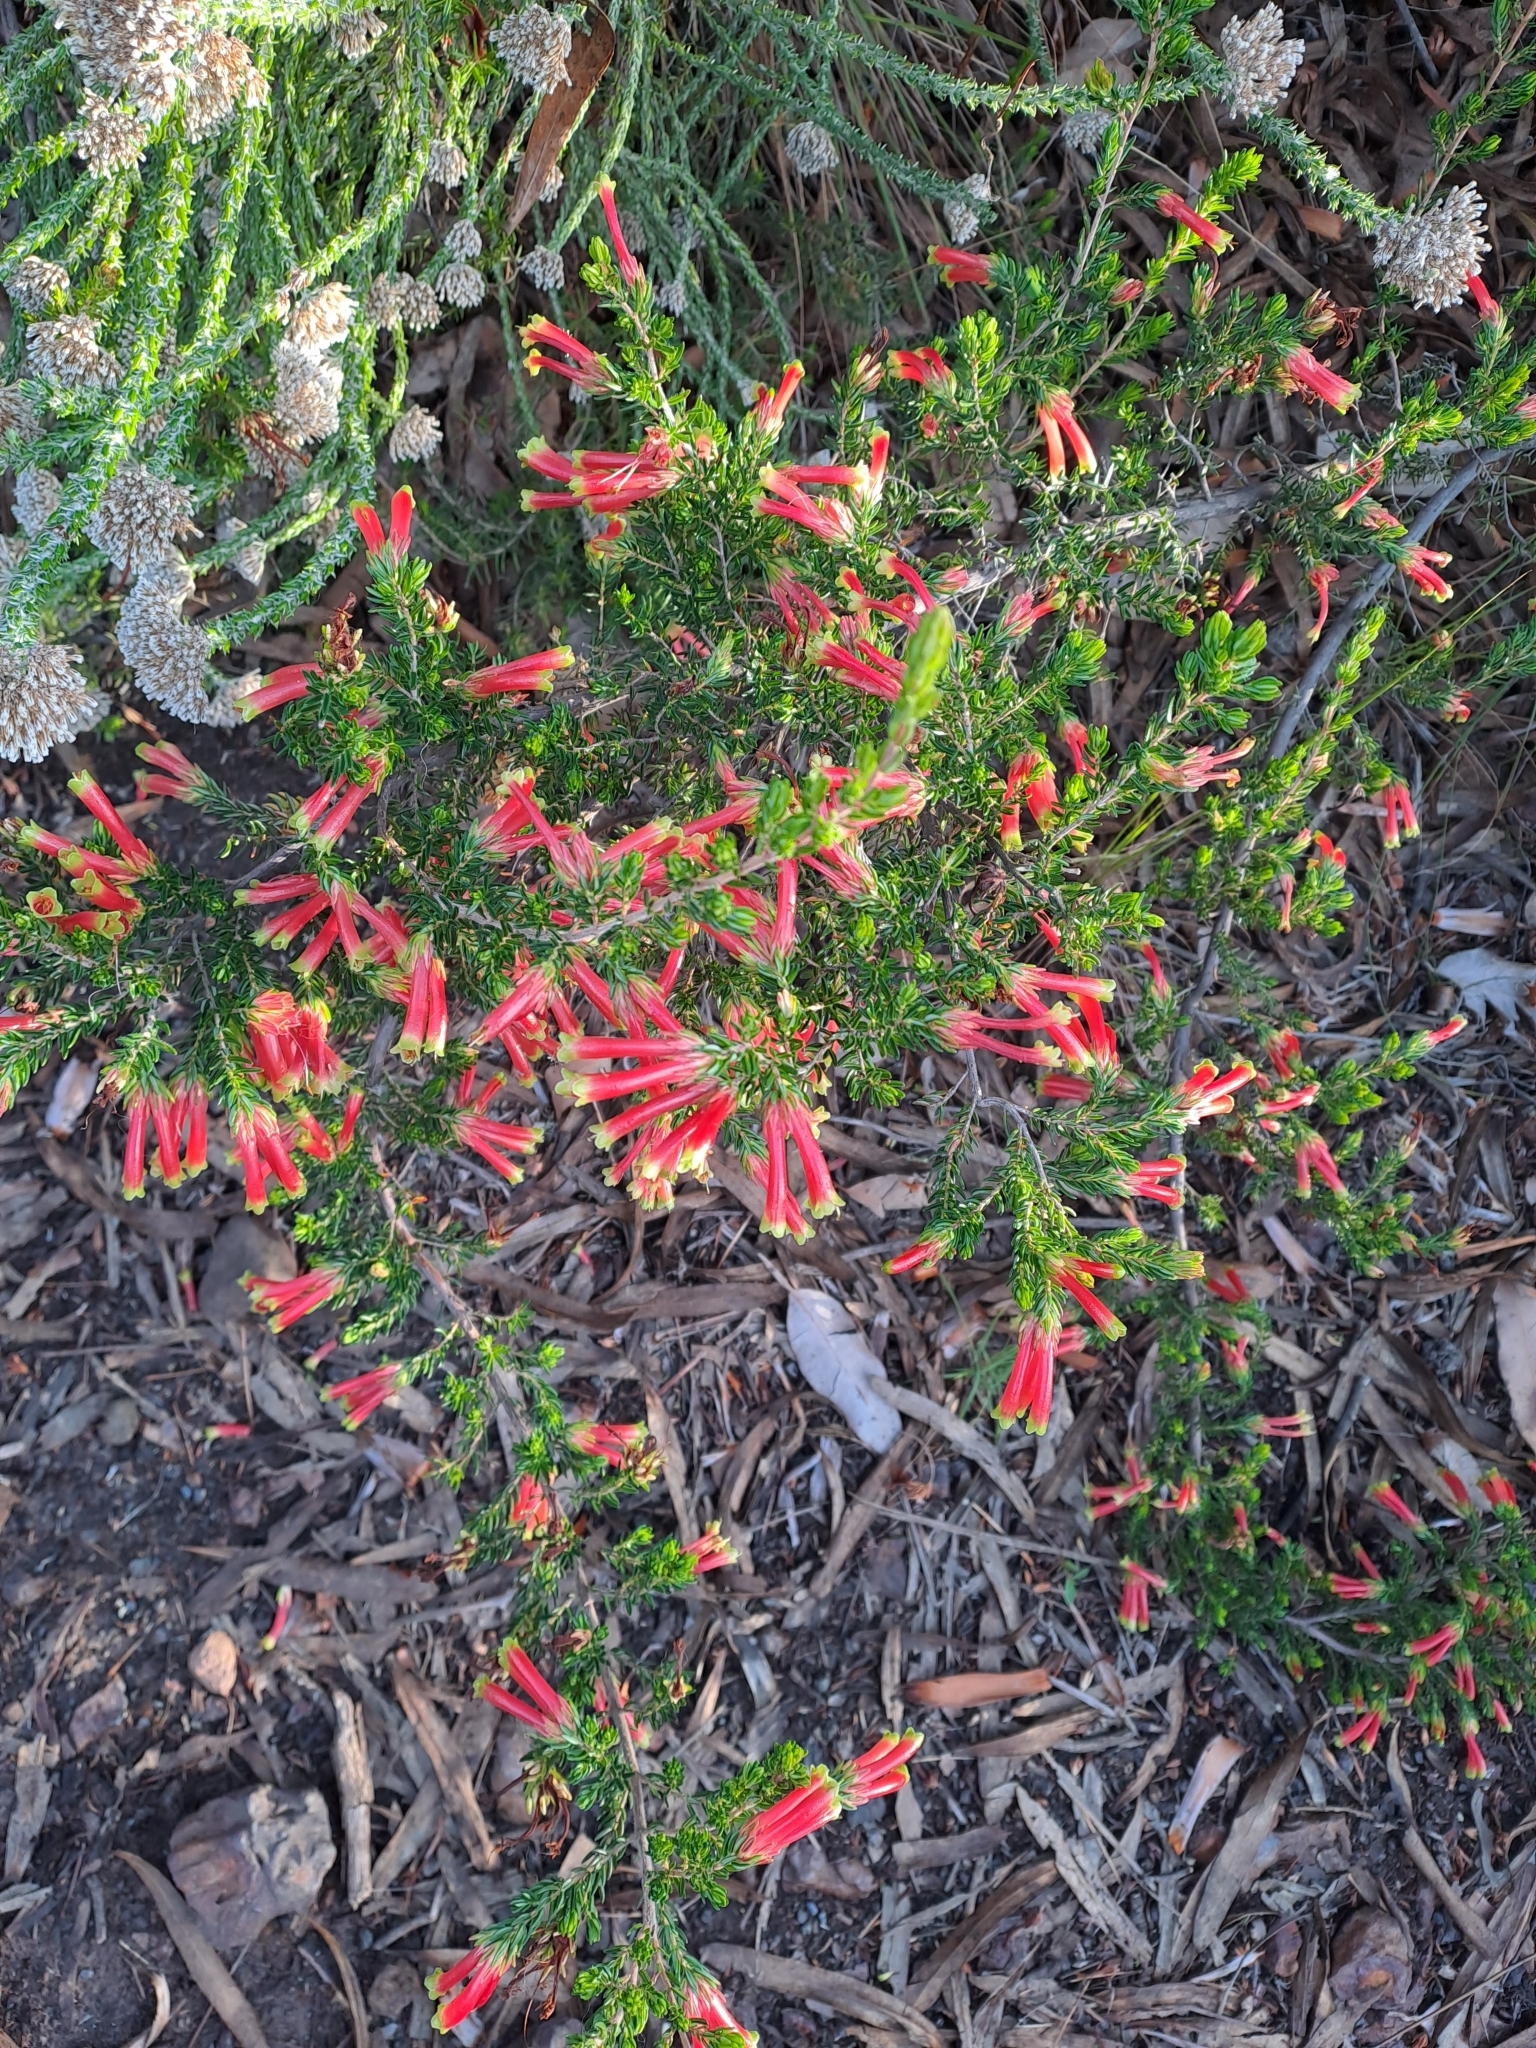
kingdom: Plantae
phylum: Tracheophyta
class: Magnoliopsida
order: Ericales
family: Ericaceae
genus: Erica
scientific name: Erica discolor
